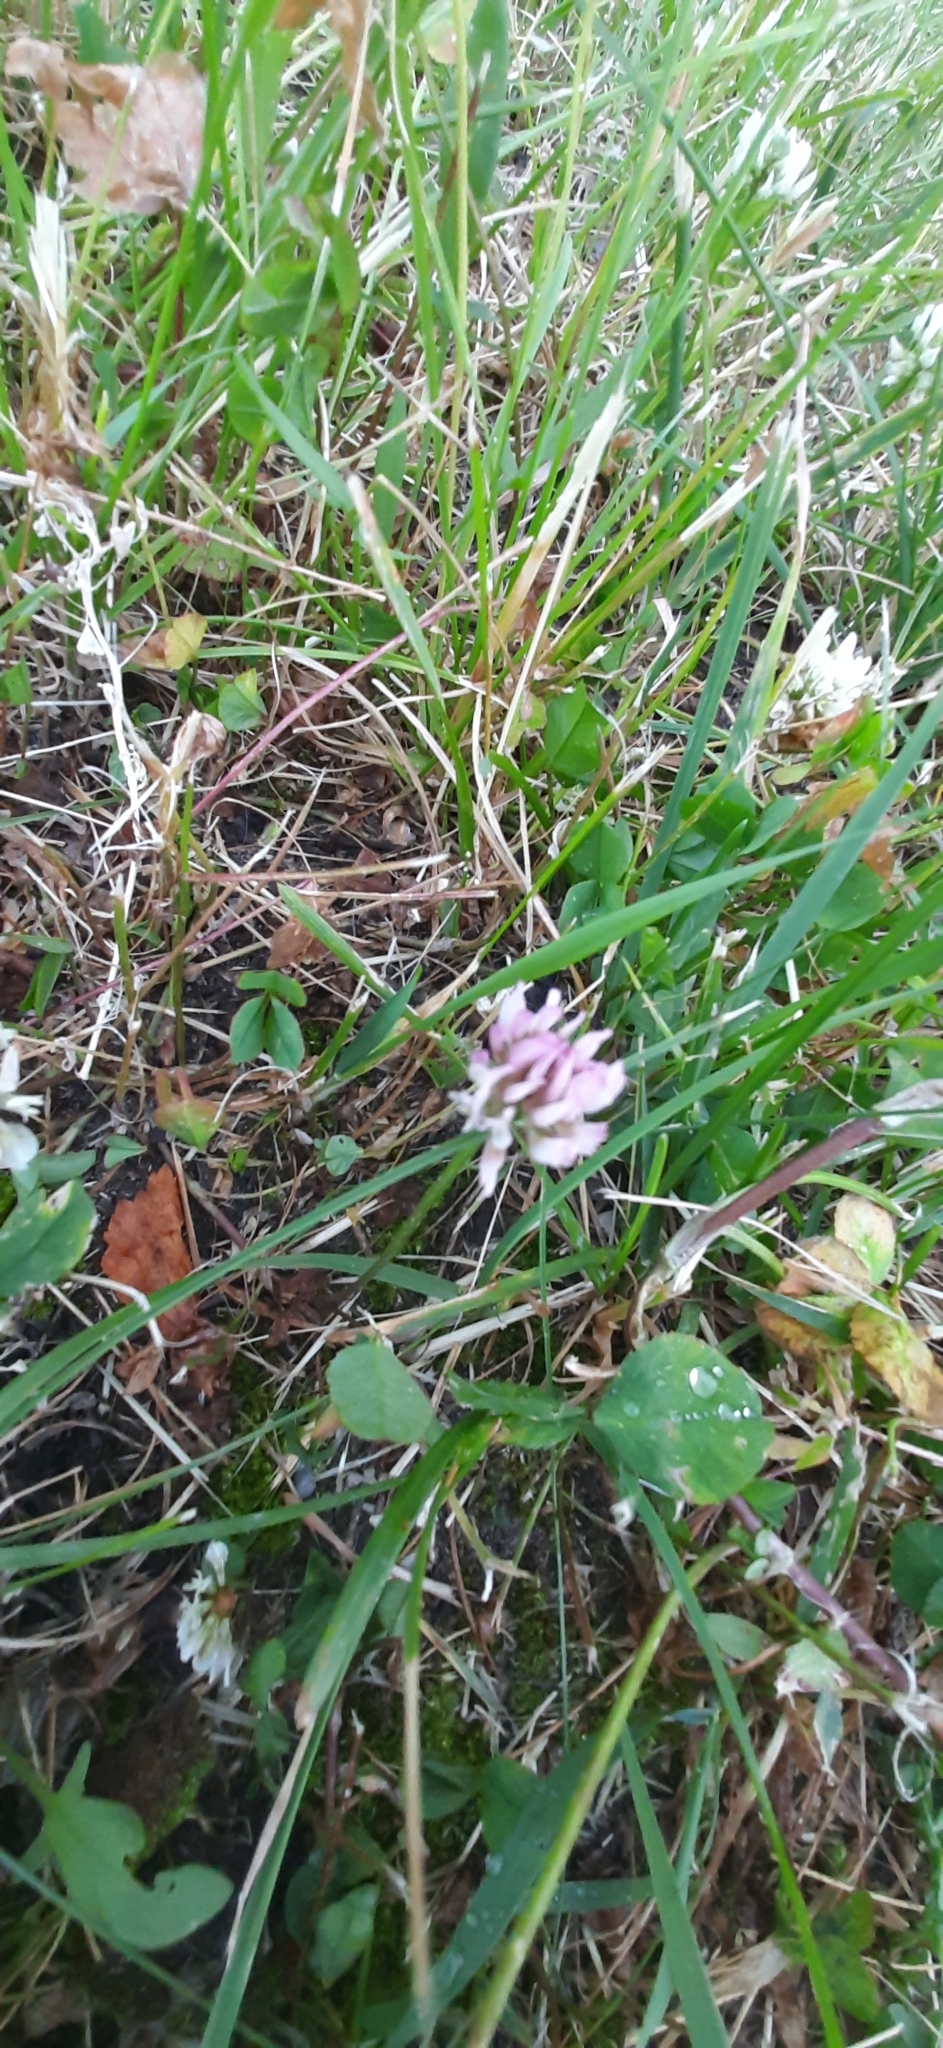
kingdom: Plantae
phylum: Tracheophyta
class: Magnoliopsida
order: Fabales
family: Fabaceae
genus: Trifolium
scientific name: Trifolium hybridum
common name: Alsike clover
